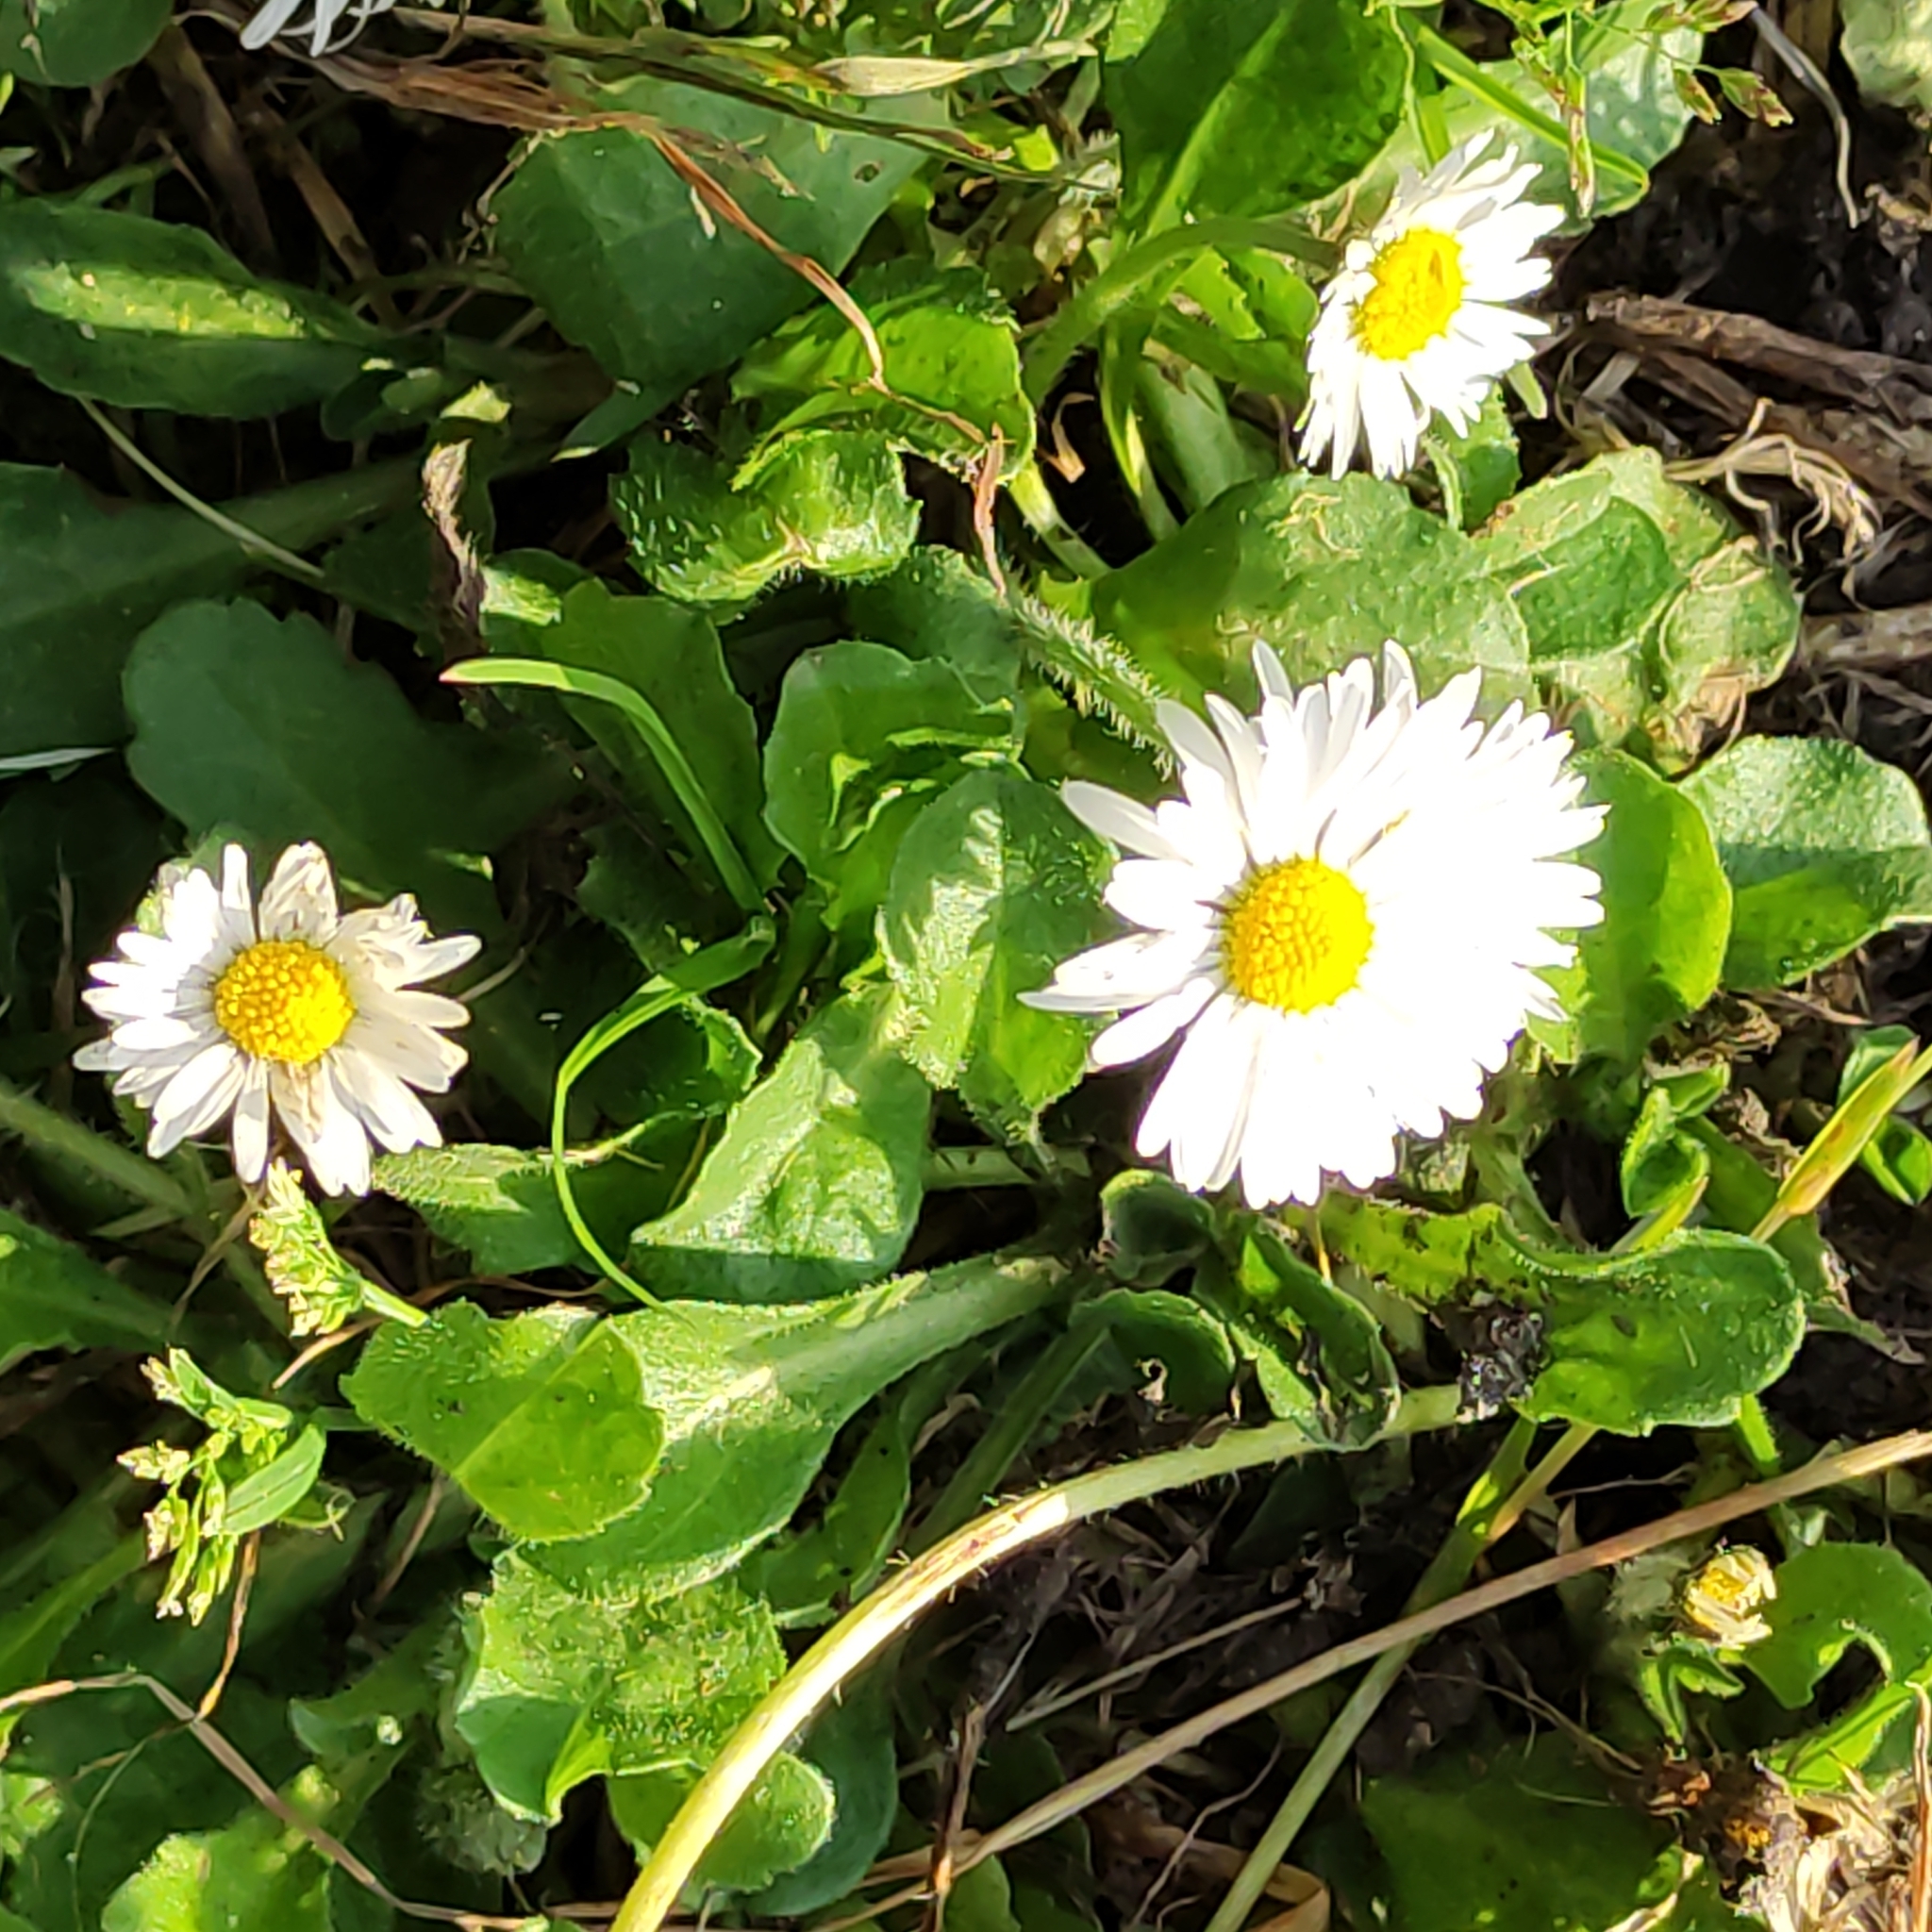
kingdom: Plantae
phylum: Tracheophyta
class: Magnoliopsida
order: Asterales
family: Asteraceae
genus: Bellis
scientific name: Bellis perennis
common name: Lawndaisy
